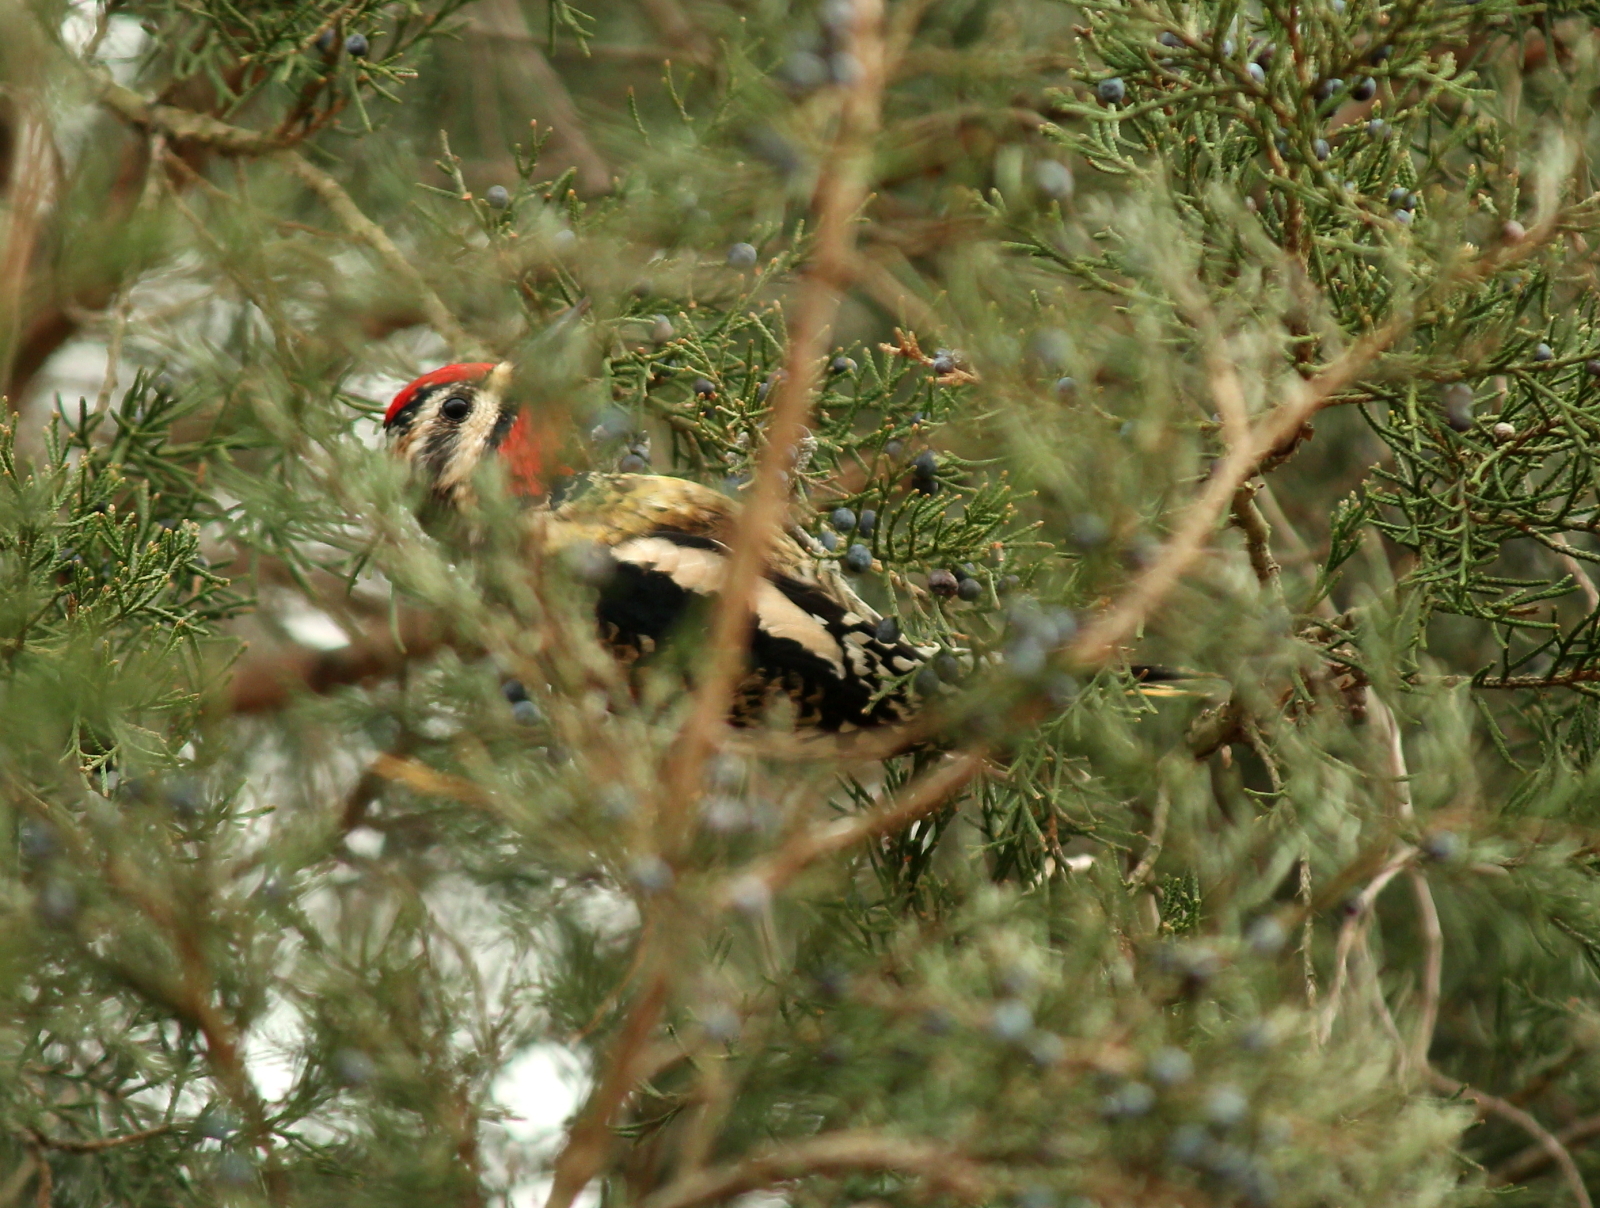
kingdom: Animalia
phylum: Chordata
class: Aves
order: Piciformes
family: Picidae
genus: Sphyrapicus
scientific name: Sphyrapicus varius
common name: Yellow-bellied sapsucker
